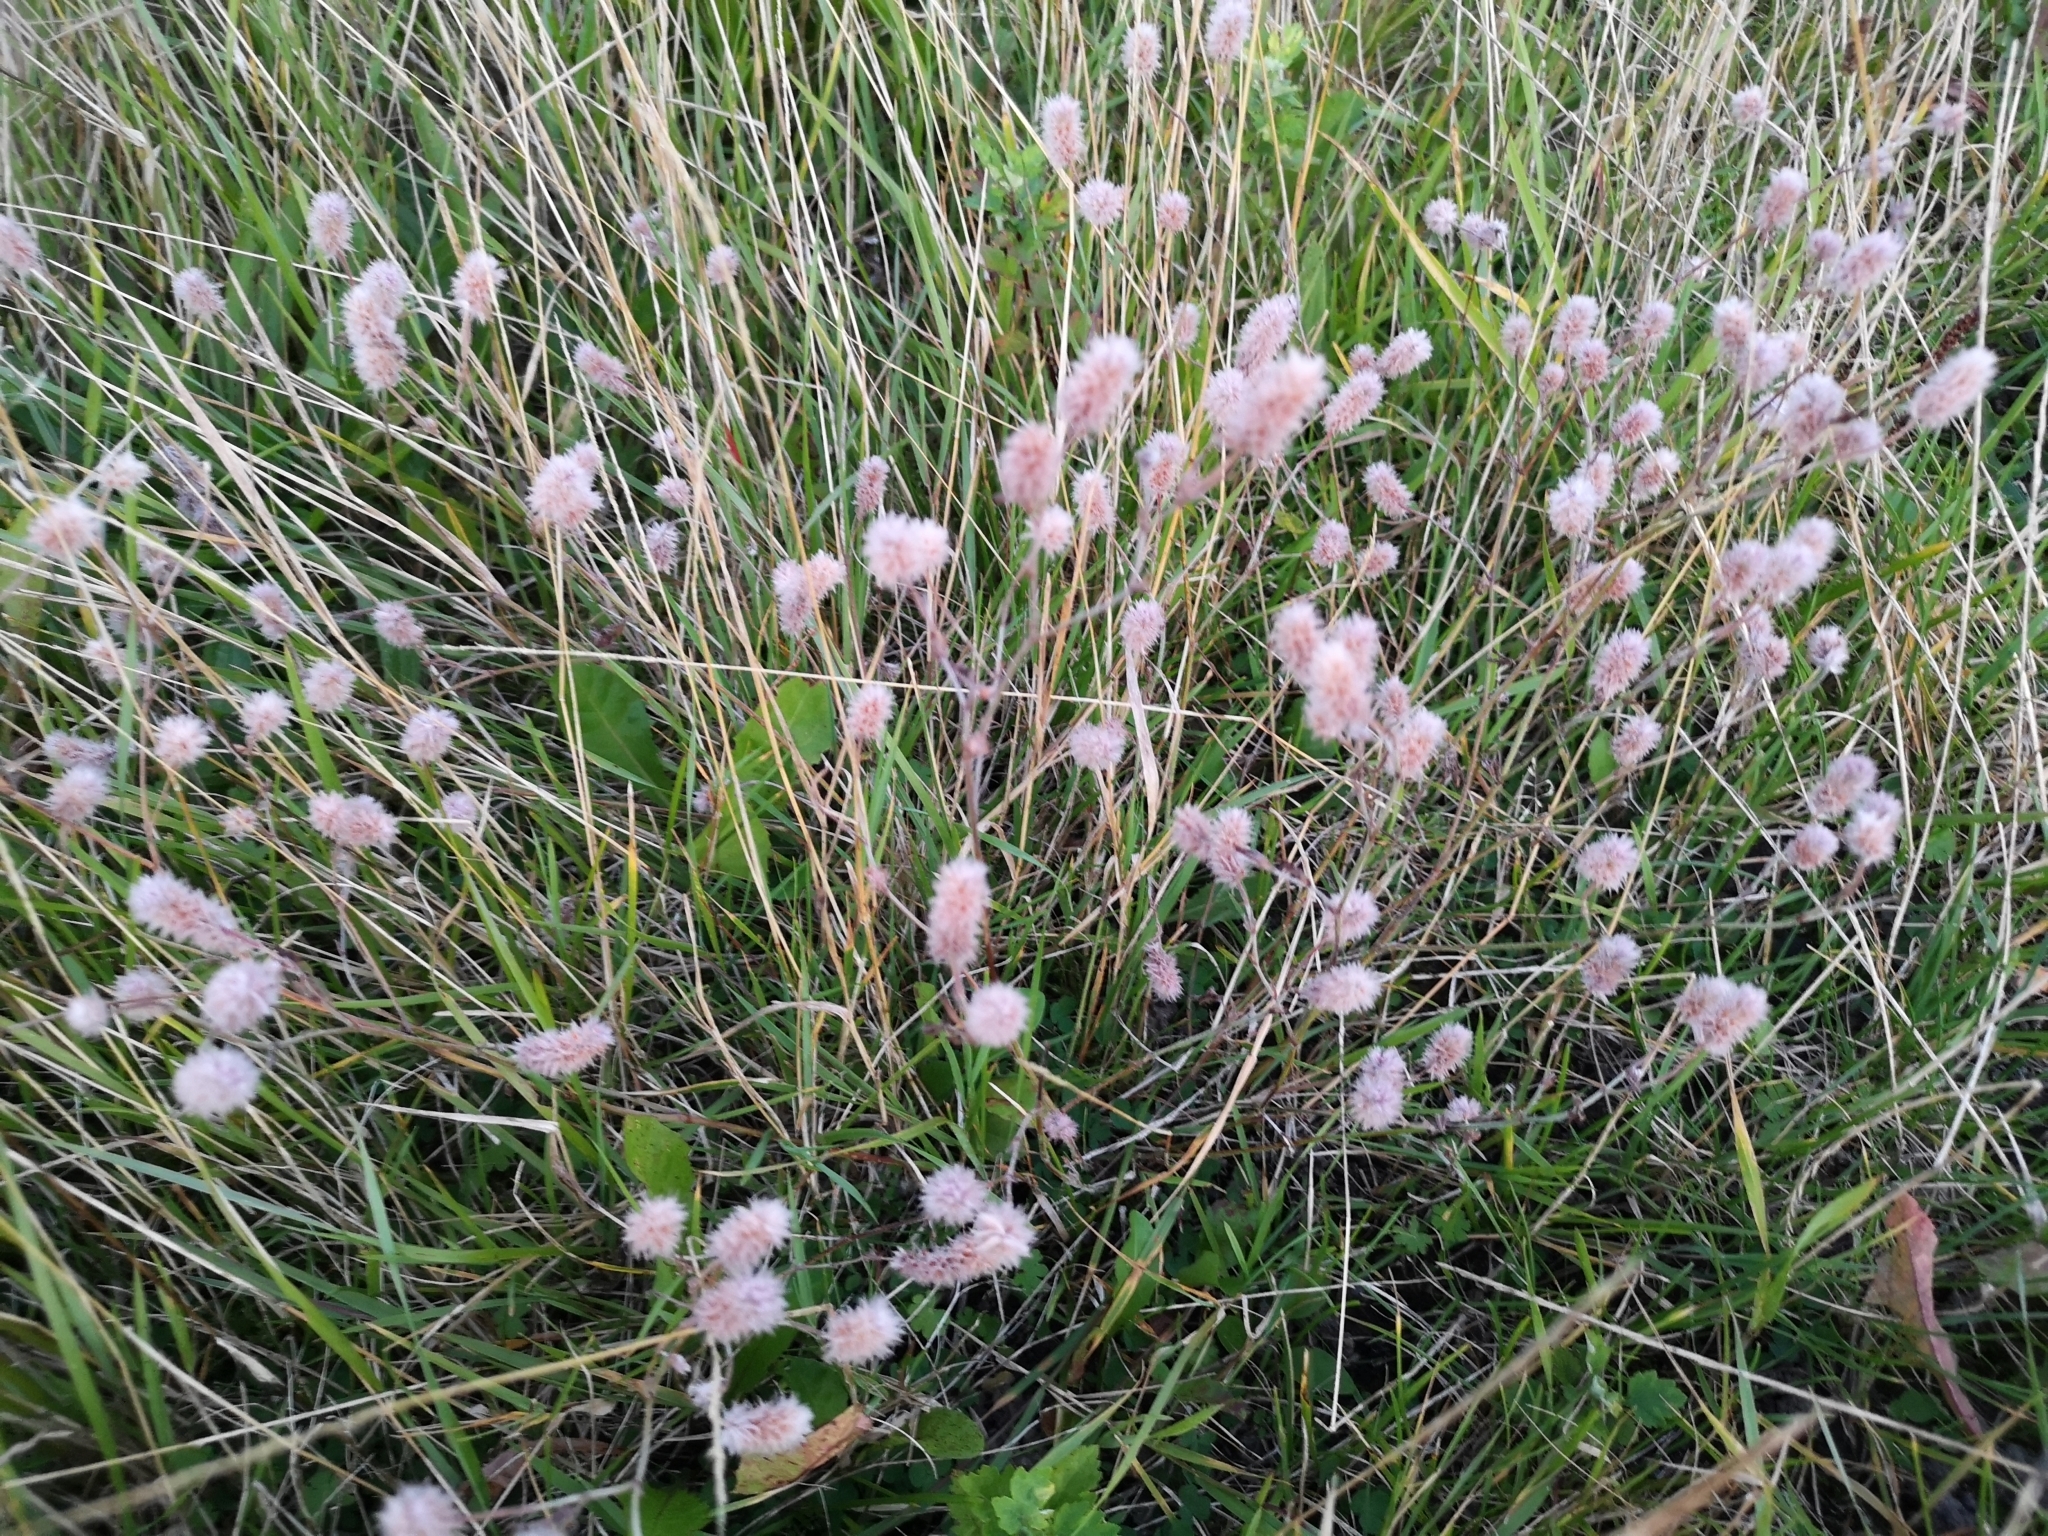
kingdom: Plantae
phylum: Tracheophyta
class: Magnoliopsida
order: Fabales
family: Fabaceae
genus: Trifolium
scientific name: Trifolium arvense
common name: Hare's-foot clover
